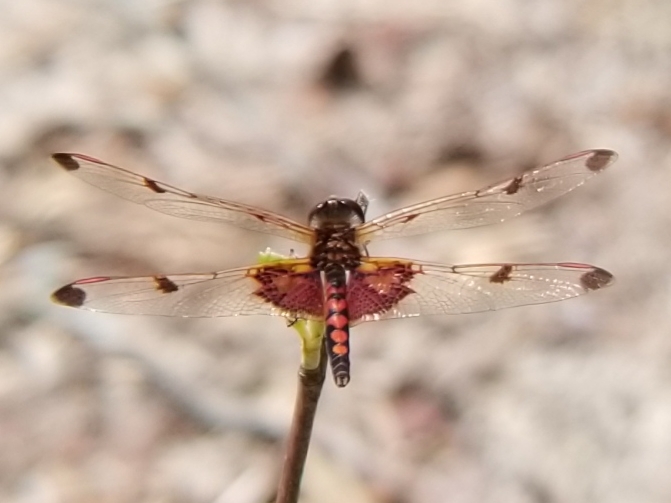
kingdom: Animalia
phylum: Arthropoda
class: Insecta
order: Odonata
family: Libellulidae
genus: Celithemis
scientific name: Celithemis elisa
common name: Calico pennant
